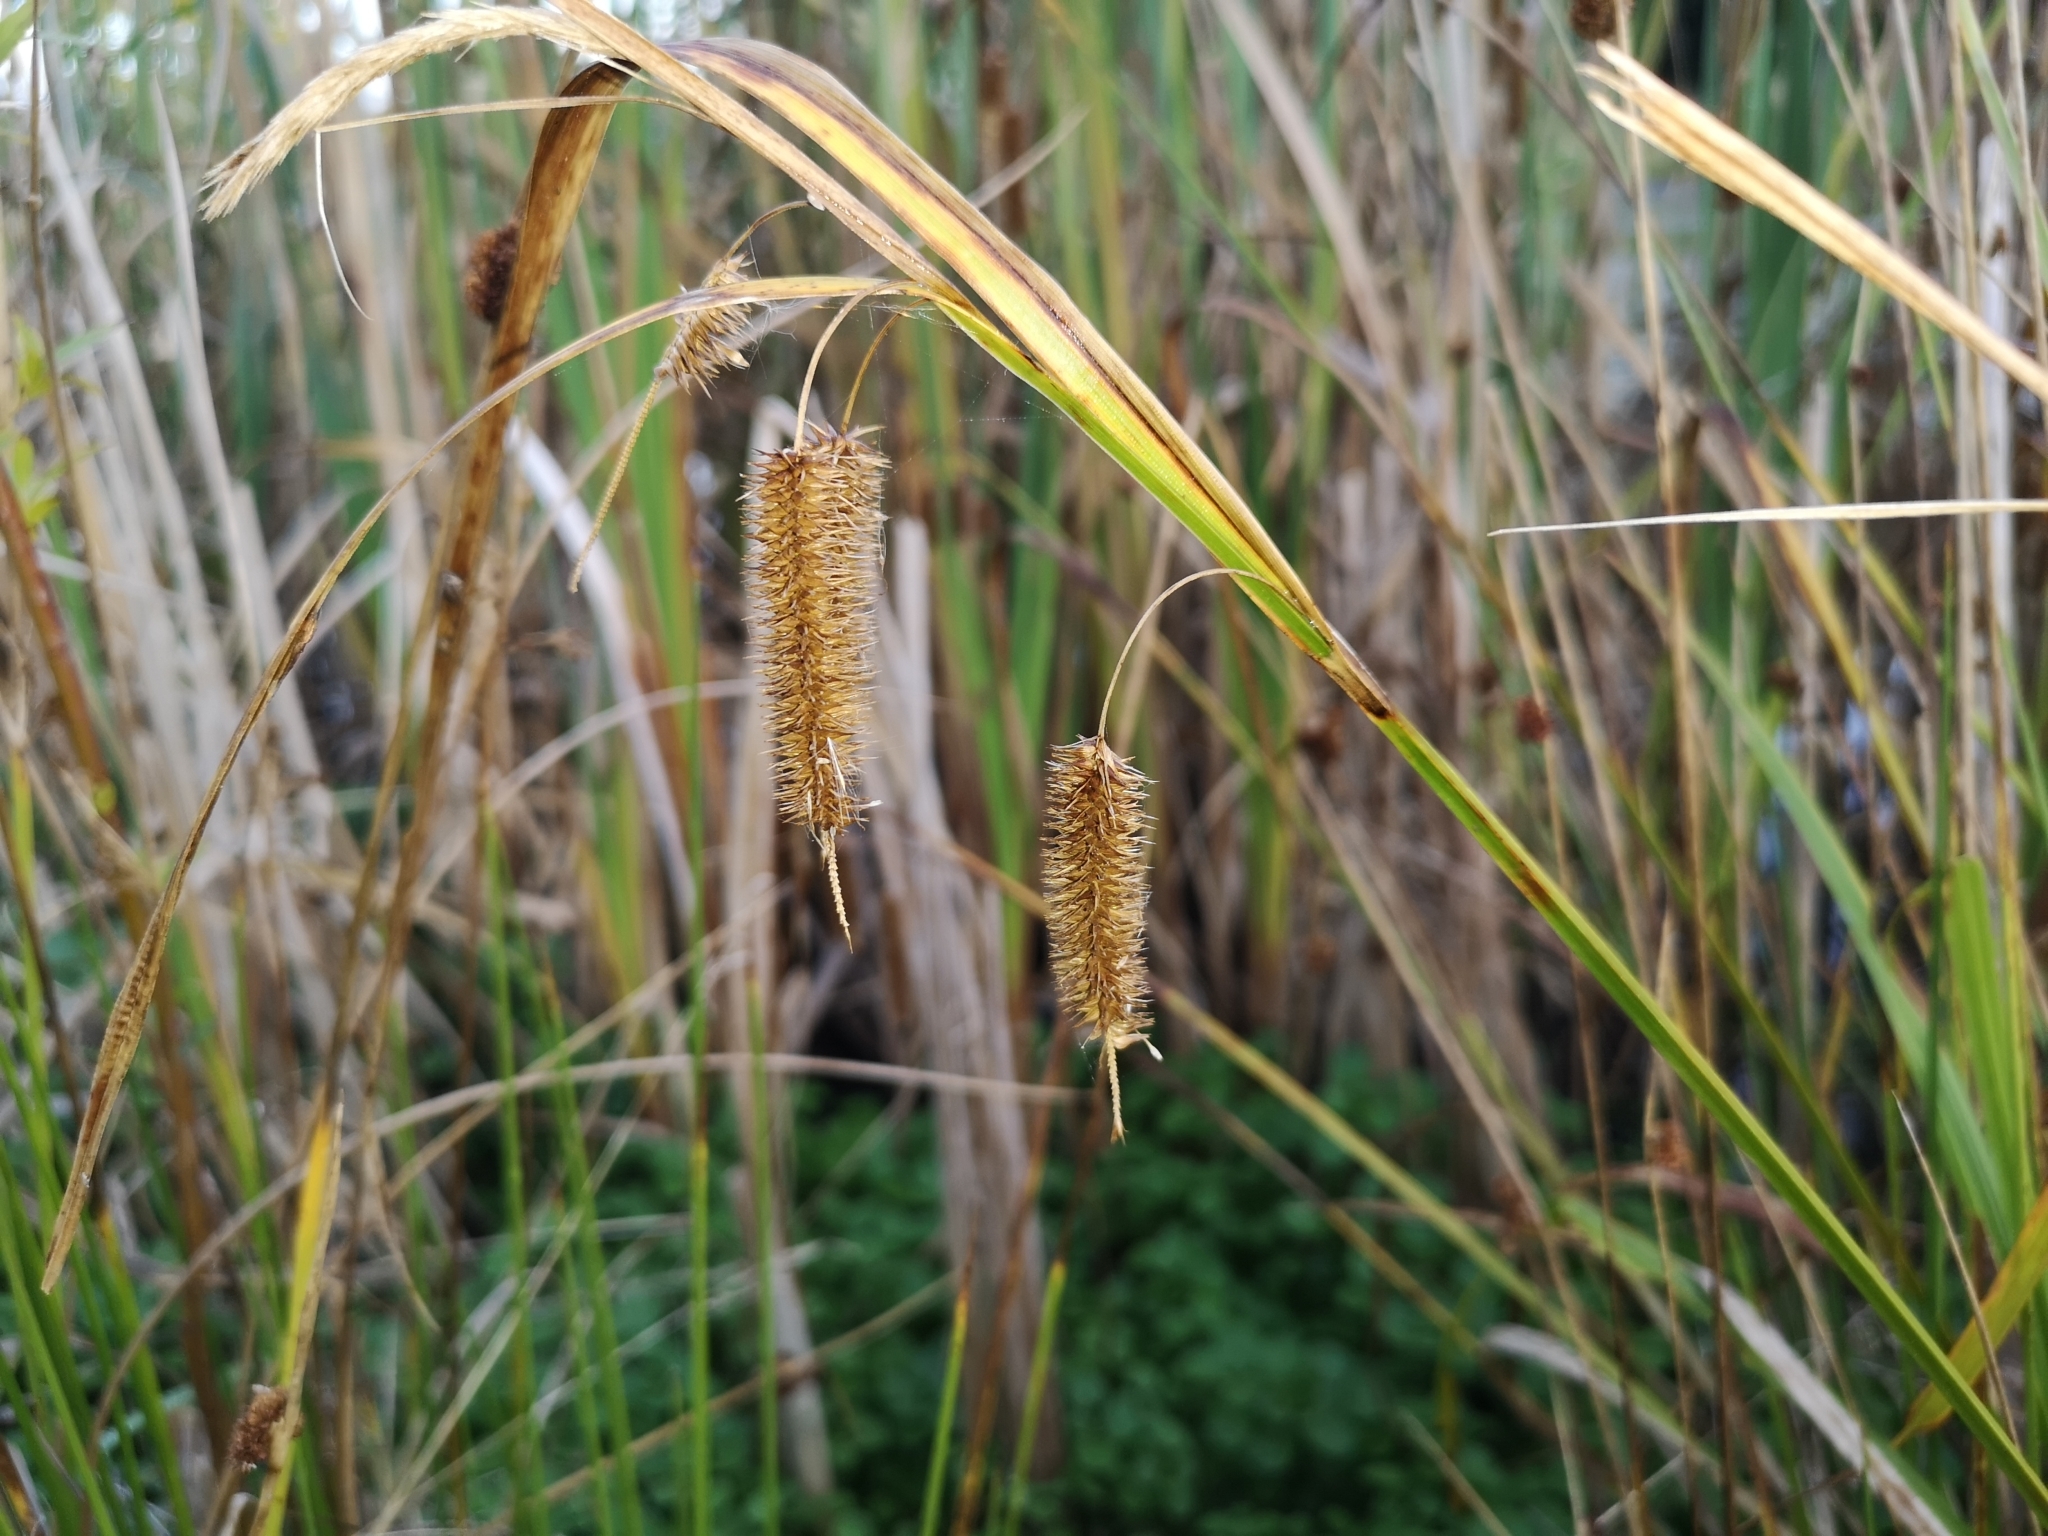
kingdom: Plantae
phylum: Tracheophyta
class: Liliopsida
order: Poales
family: Cyperaceae
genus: Carex
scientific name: Carex pseudocyperus
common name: Cyperus sedge
